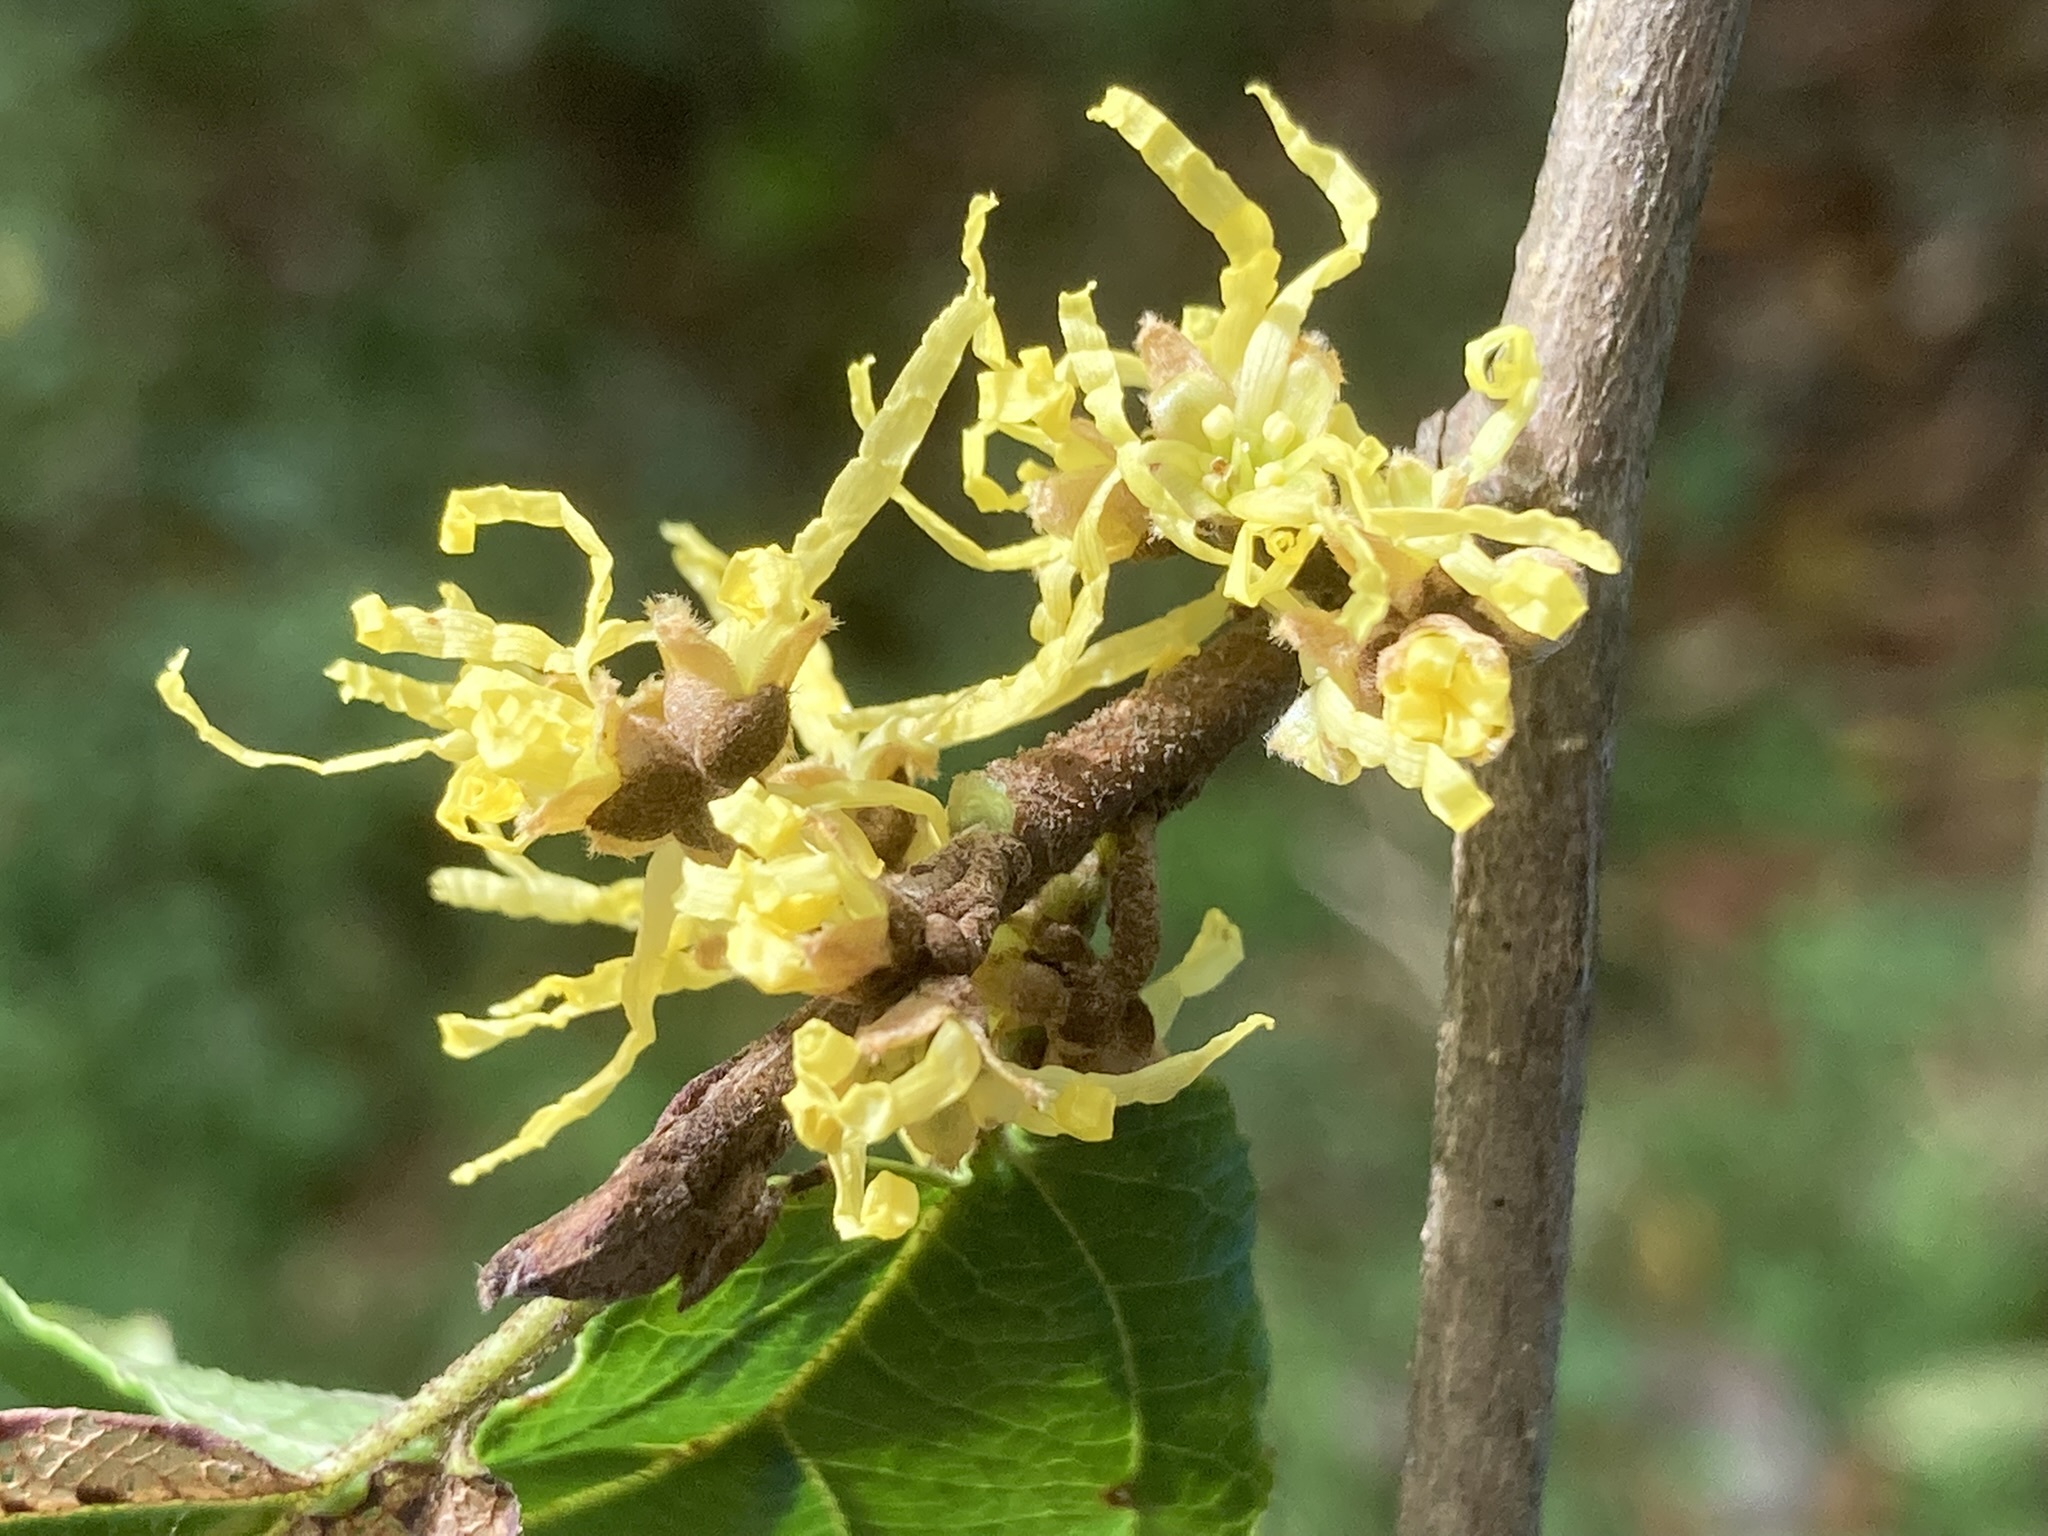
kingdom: Plantae
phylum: Tracheophyta
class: Magnoliopsida
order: Saxifragales
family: Hamamelidaceae
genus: Hamamelis
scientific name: Hamamelis virginiana
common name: Witch-hazel
